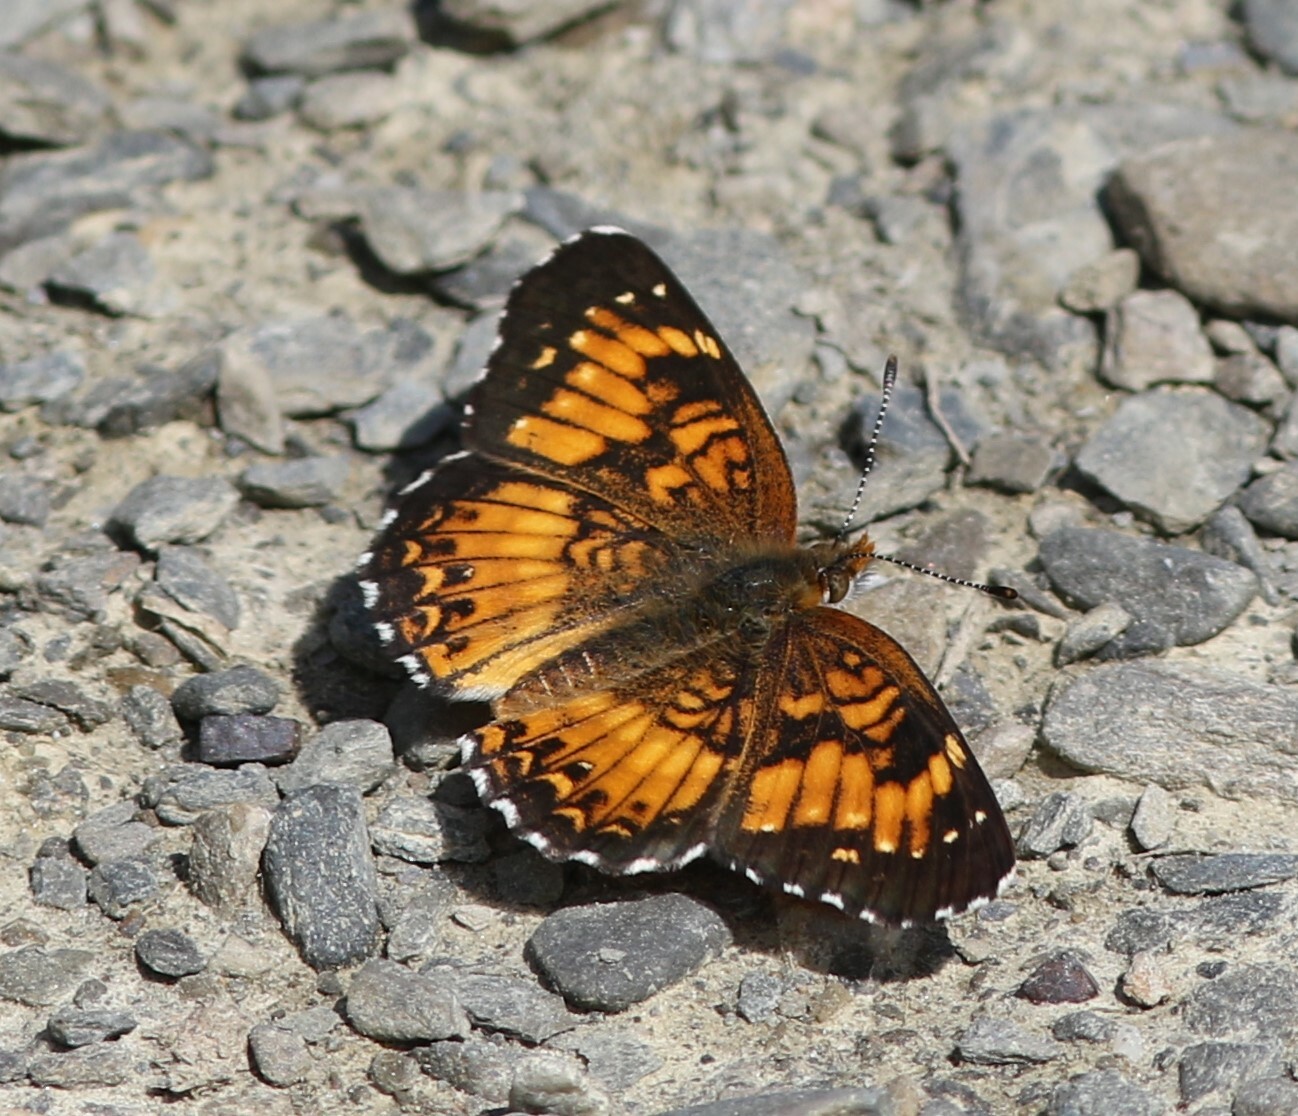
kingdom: Animalia
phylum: Arthropoda
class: Insecta
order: Lepidoptera
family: Nymphalidae
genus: Chlosyne
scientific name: Chlosyne harrisii
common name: Harris's checkerspot
